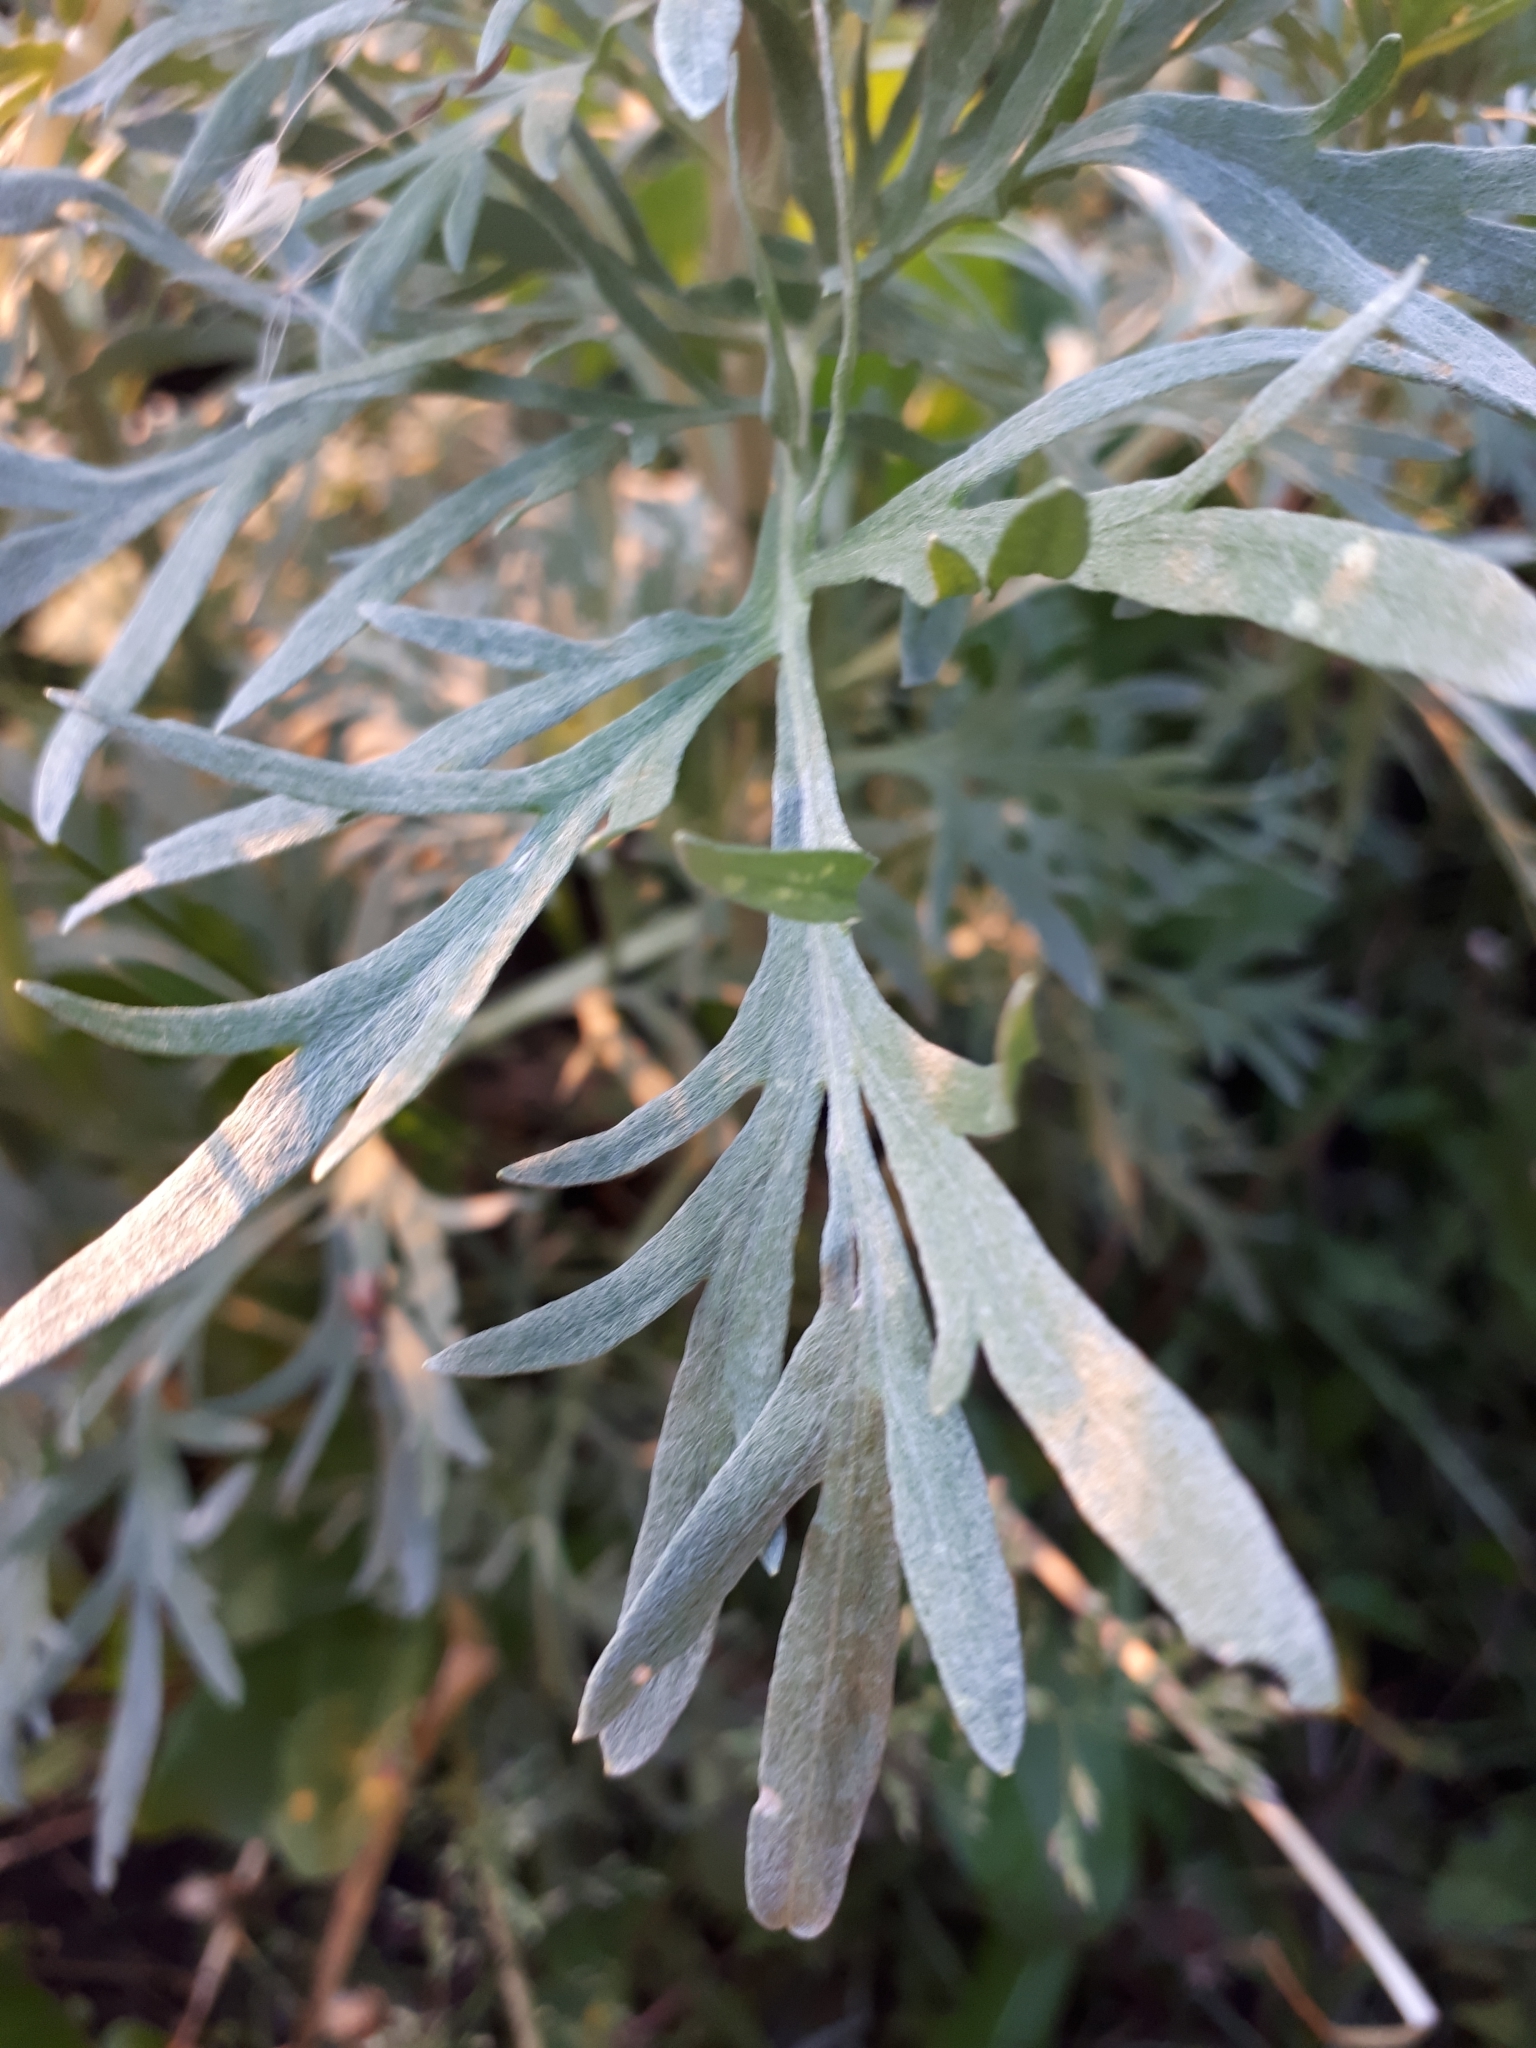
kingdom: Plantae
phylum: Tracheophyta
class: Magnoliopsida
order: Asterales
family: Asteraceae
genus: Artemisia
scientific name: Artemisia absinthium
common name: Wormwood
